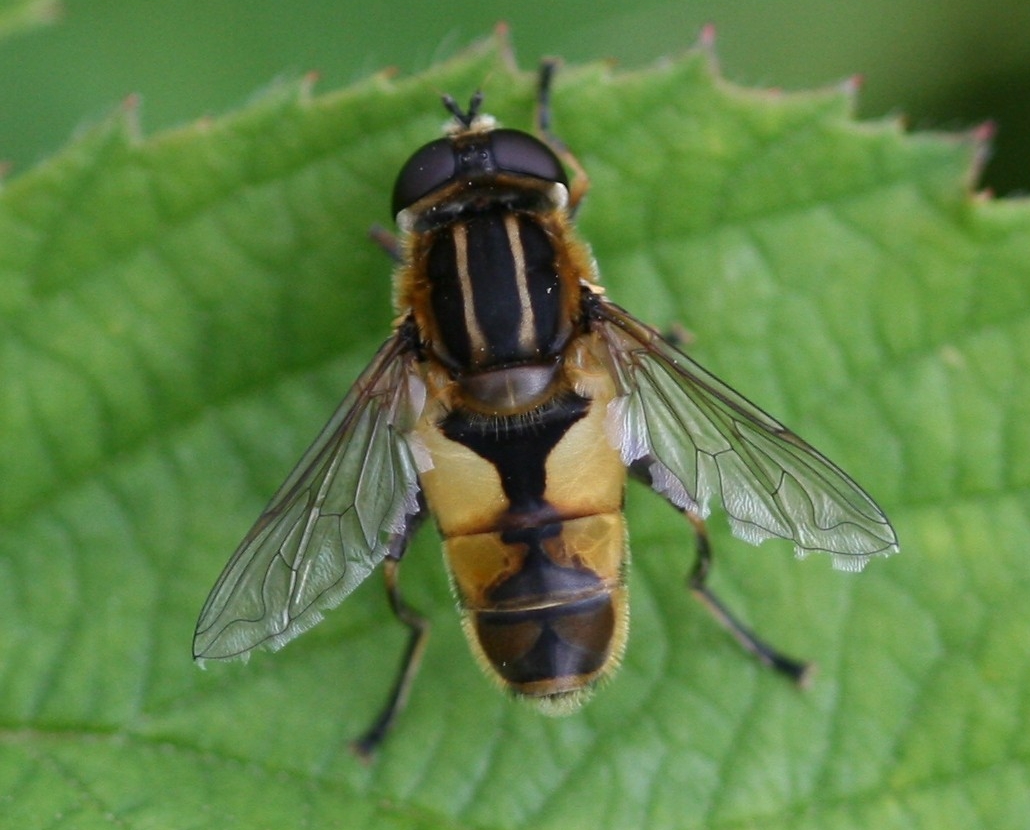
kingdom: Animalia
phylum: Arthropoda
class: Insecta
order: Diptera
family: Syrphidae
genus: Helophilus
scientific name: Helophilus hybridus
